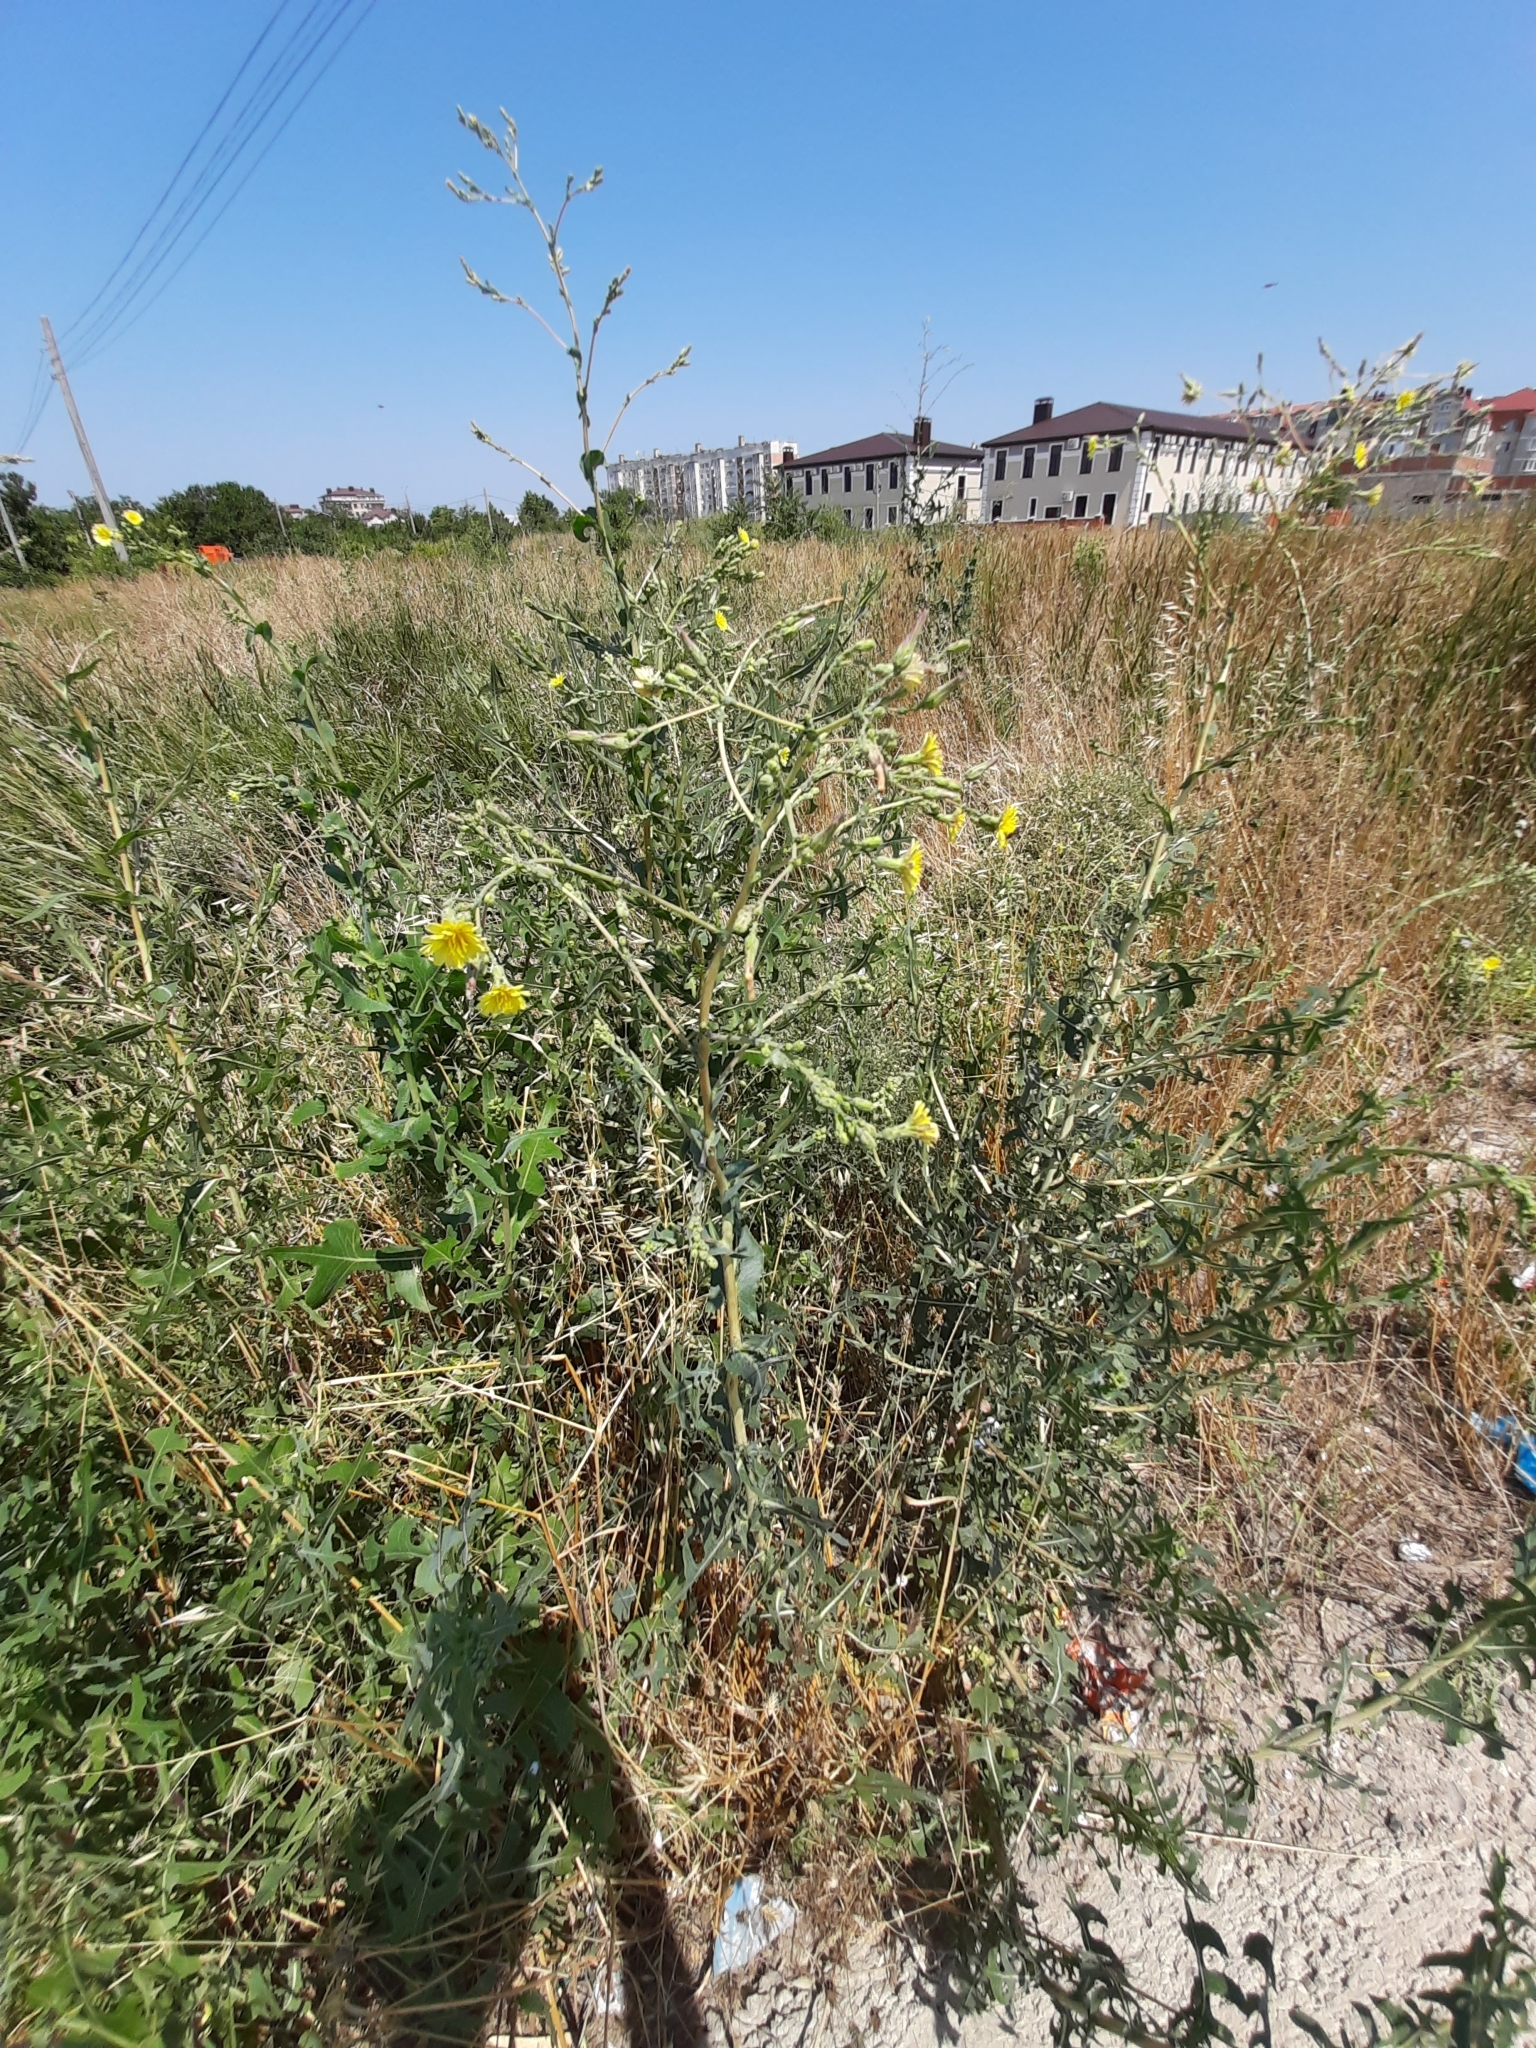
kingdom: Plantae
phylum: Tracheophyta
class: Magnoliopsida
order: Asterales
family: Asteraceae
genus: Sonchus
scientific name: Sonchus arvensis
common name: Perennial sow-thistle
